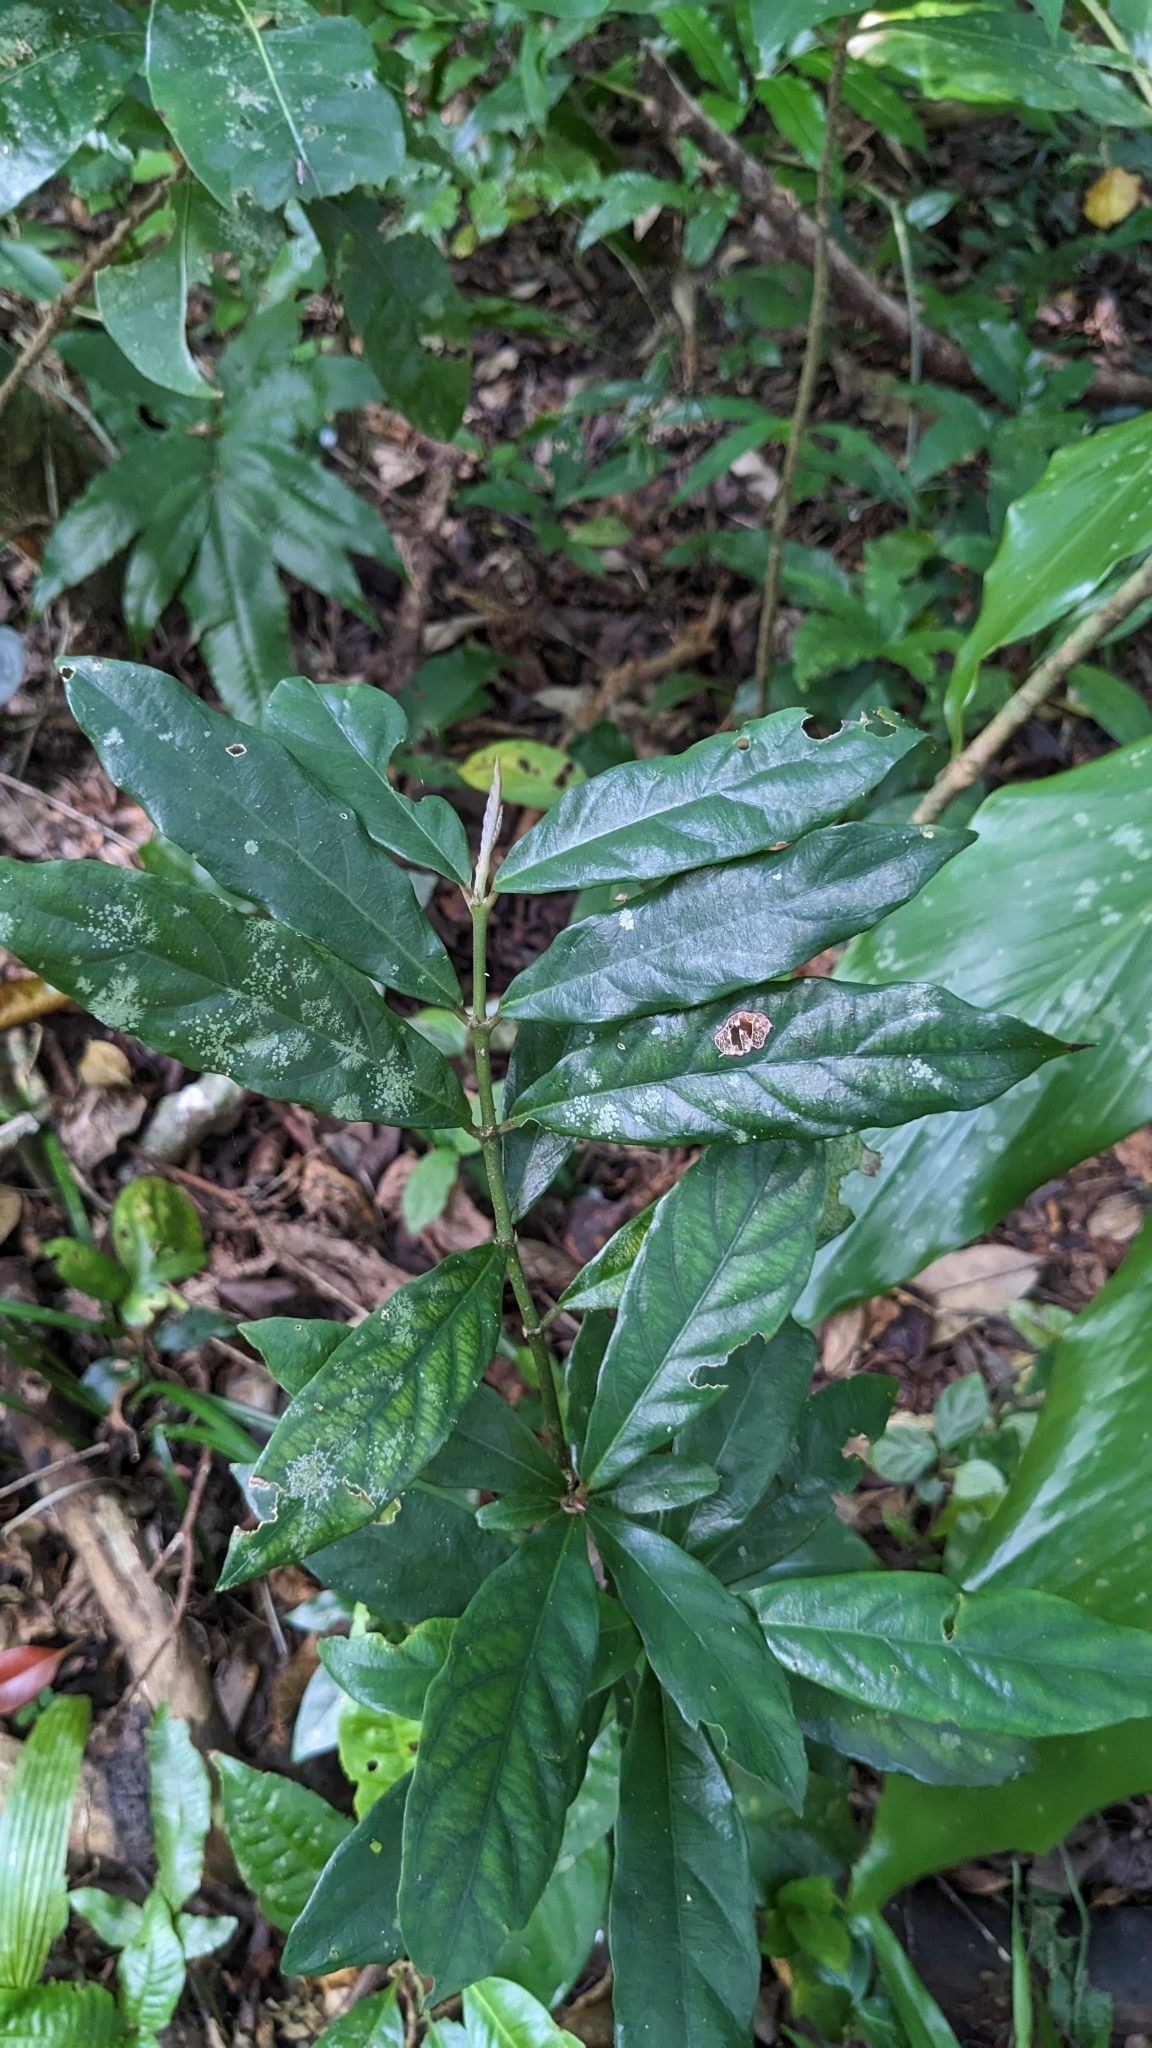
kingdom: Plantae
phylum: Tracheophyta
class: Magnoliopsida
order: Gentianales
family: Rubiaceae
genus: Lasianthus
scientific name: Lasianthus verticillatus
